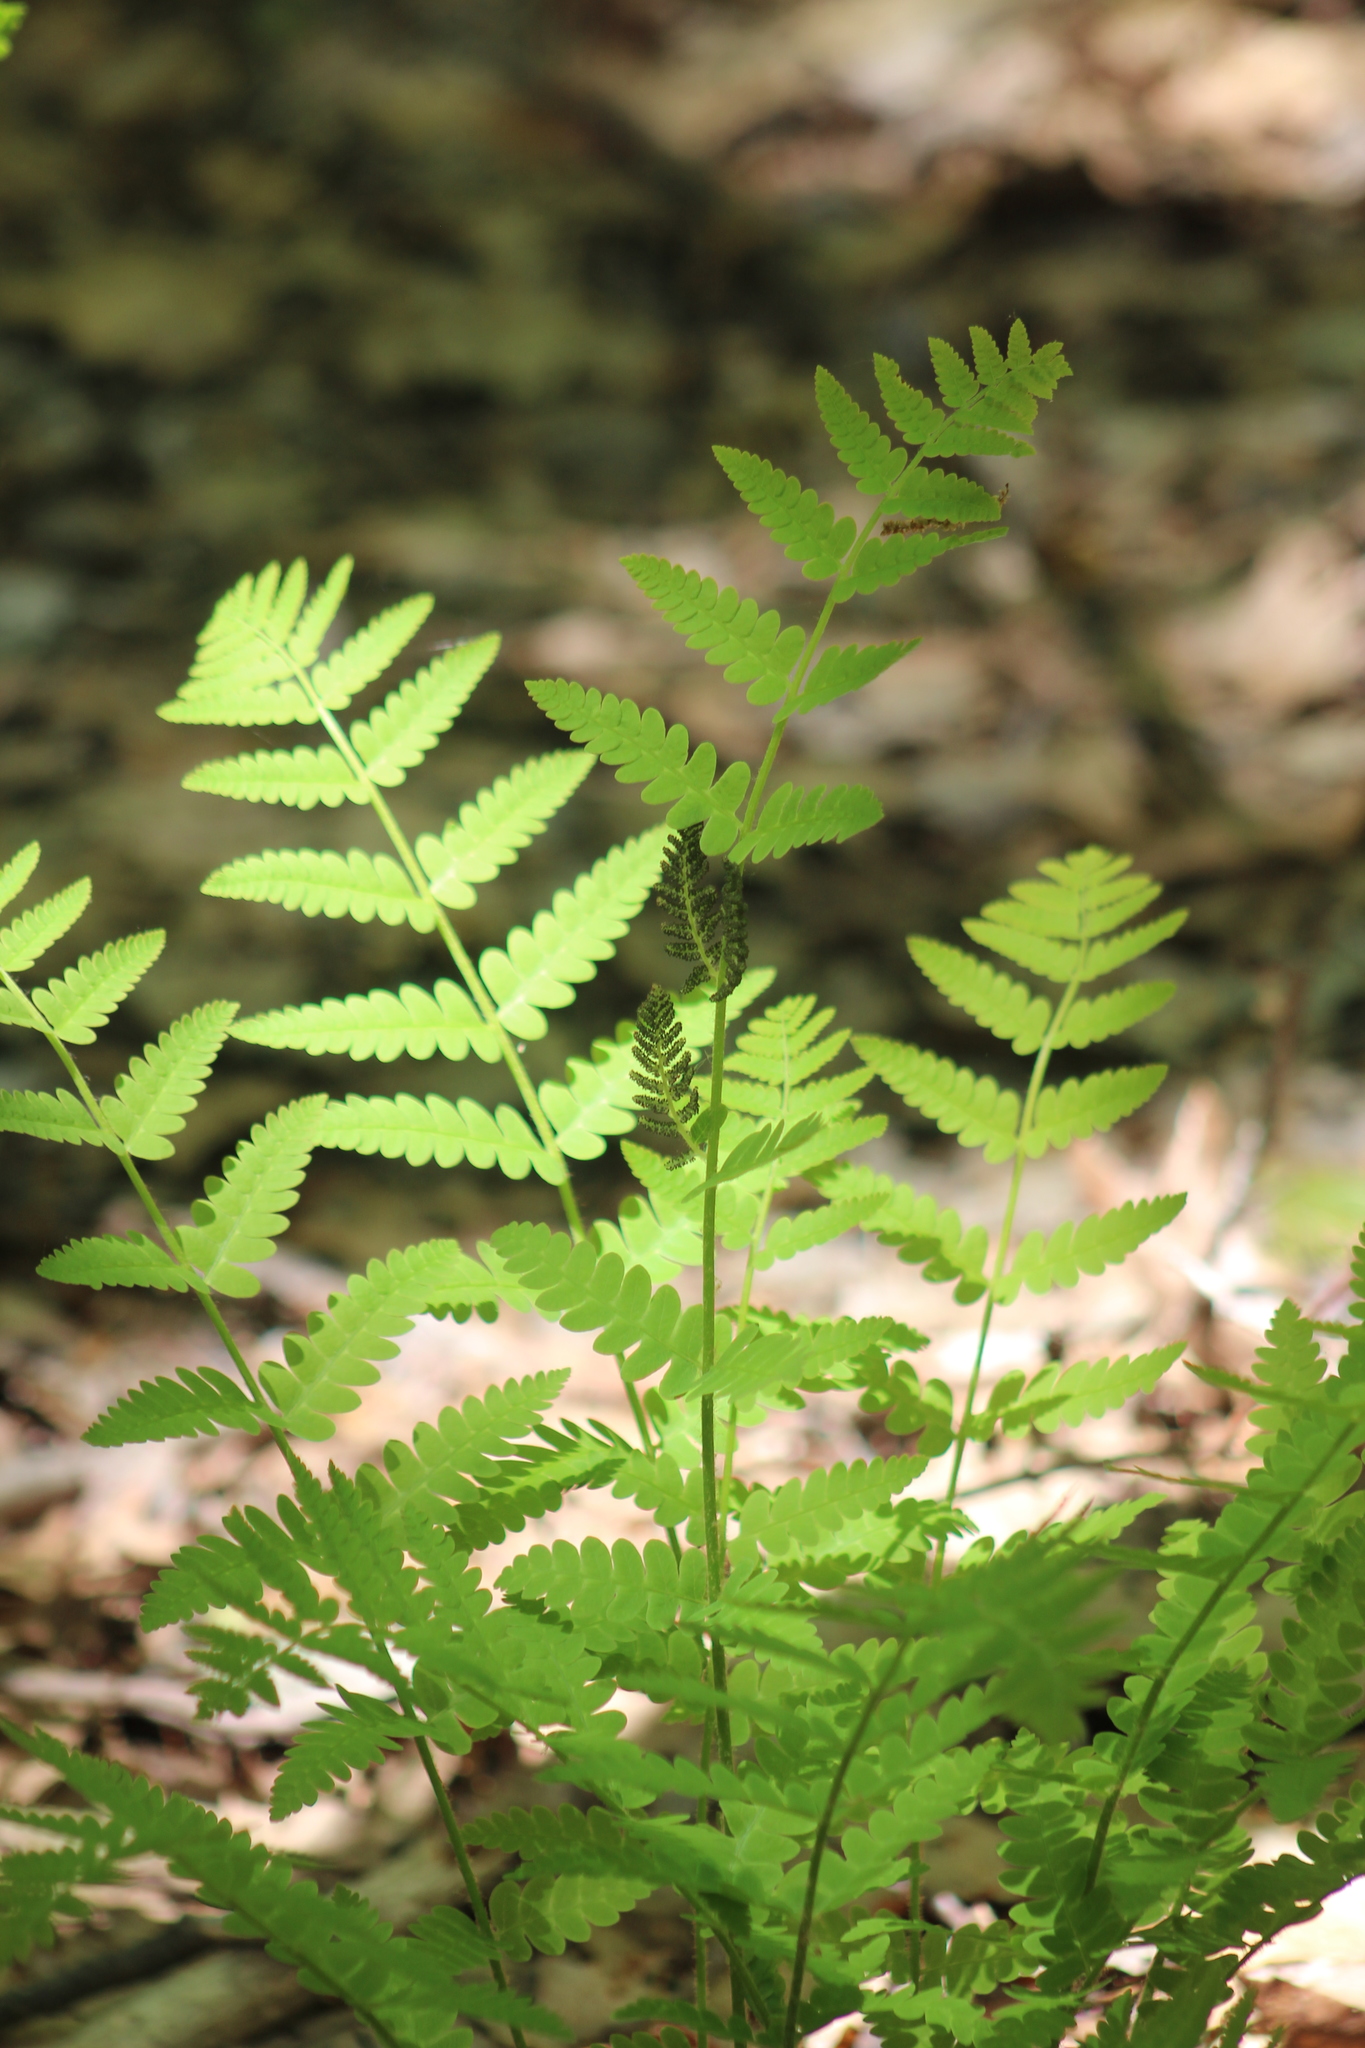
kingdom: Plantae
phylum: Tracheophyta
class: Polypodiopsida
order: Osmundales
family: Osmundaceae
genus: Claytosmunda
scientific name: Claytosmunda claytoniana
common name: Clayton's fern
